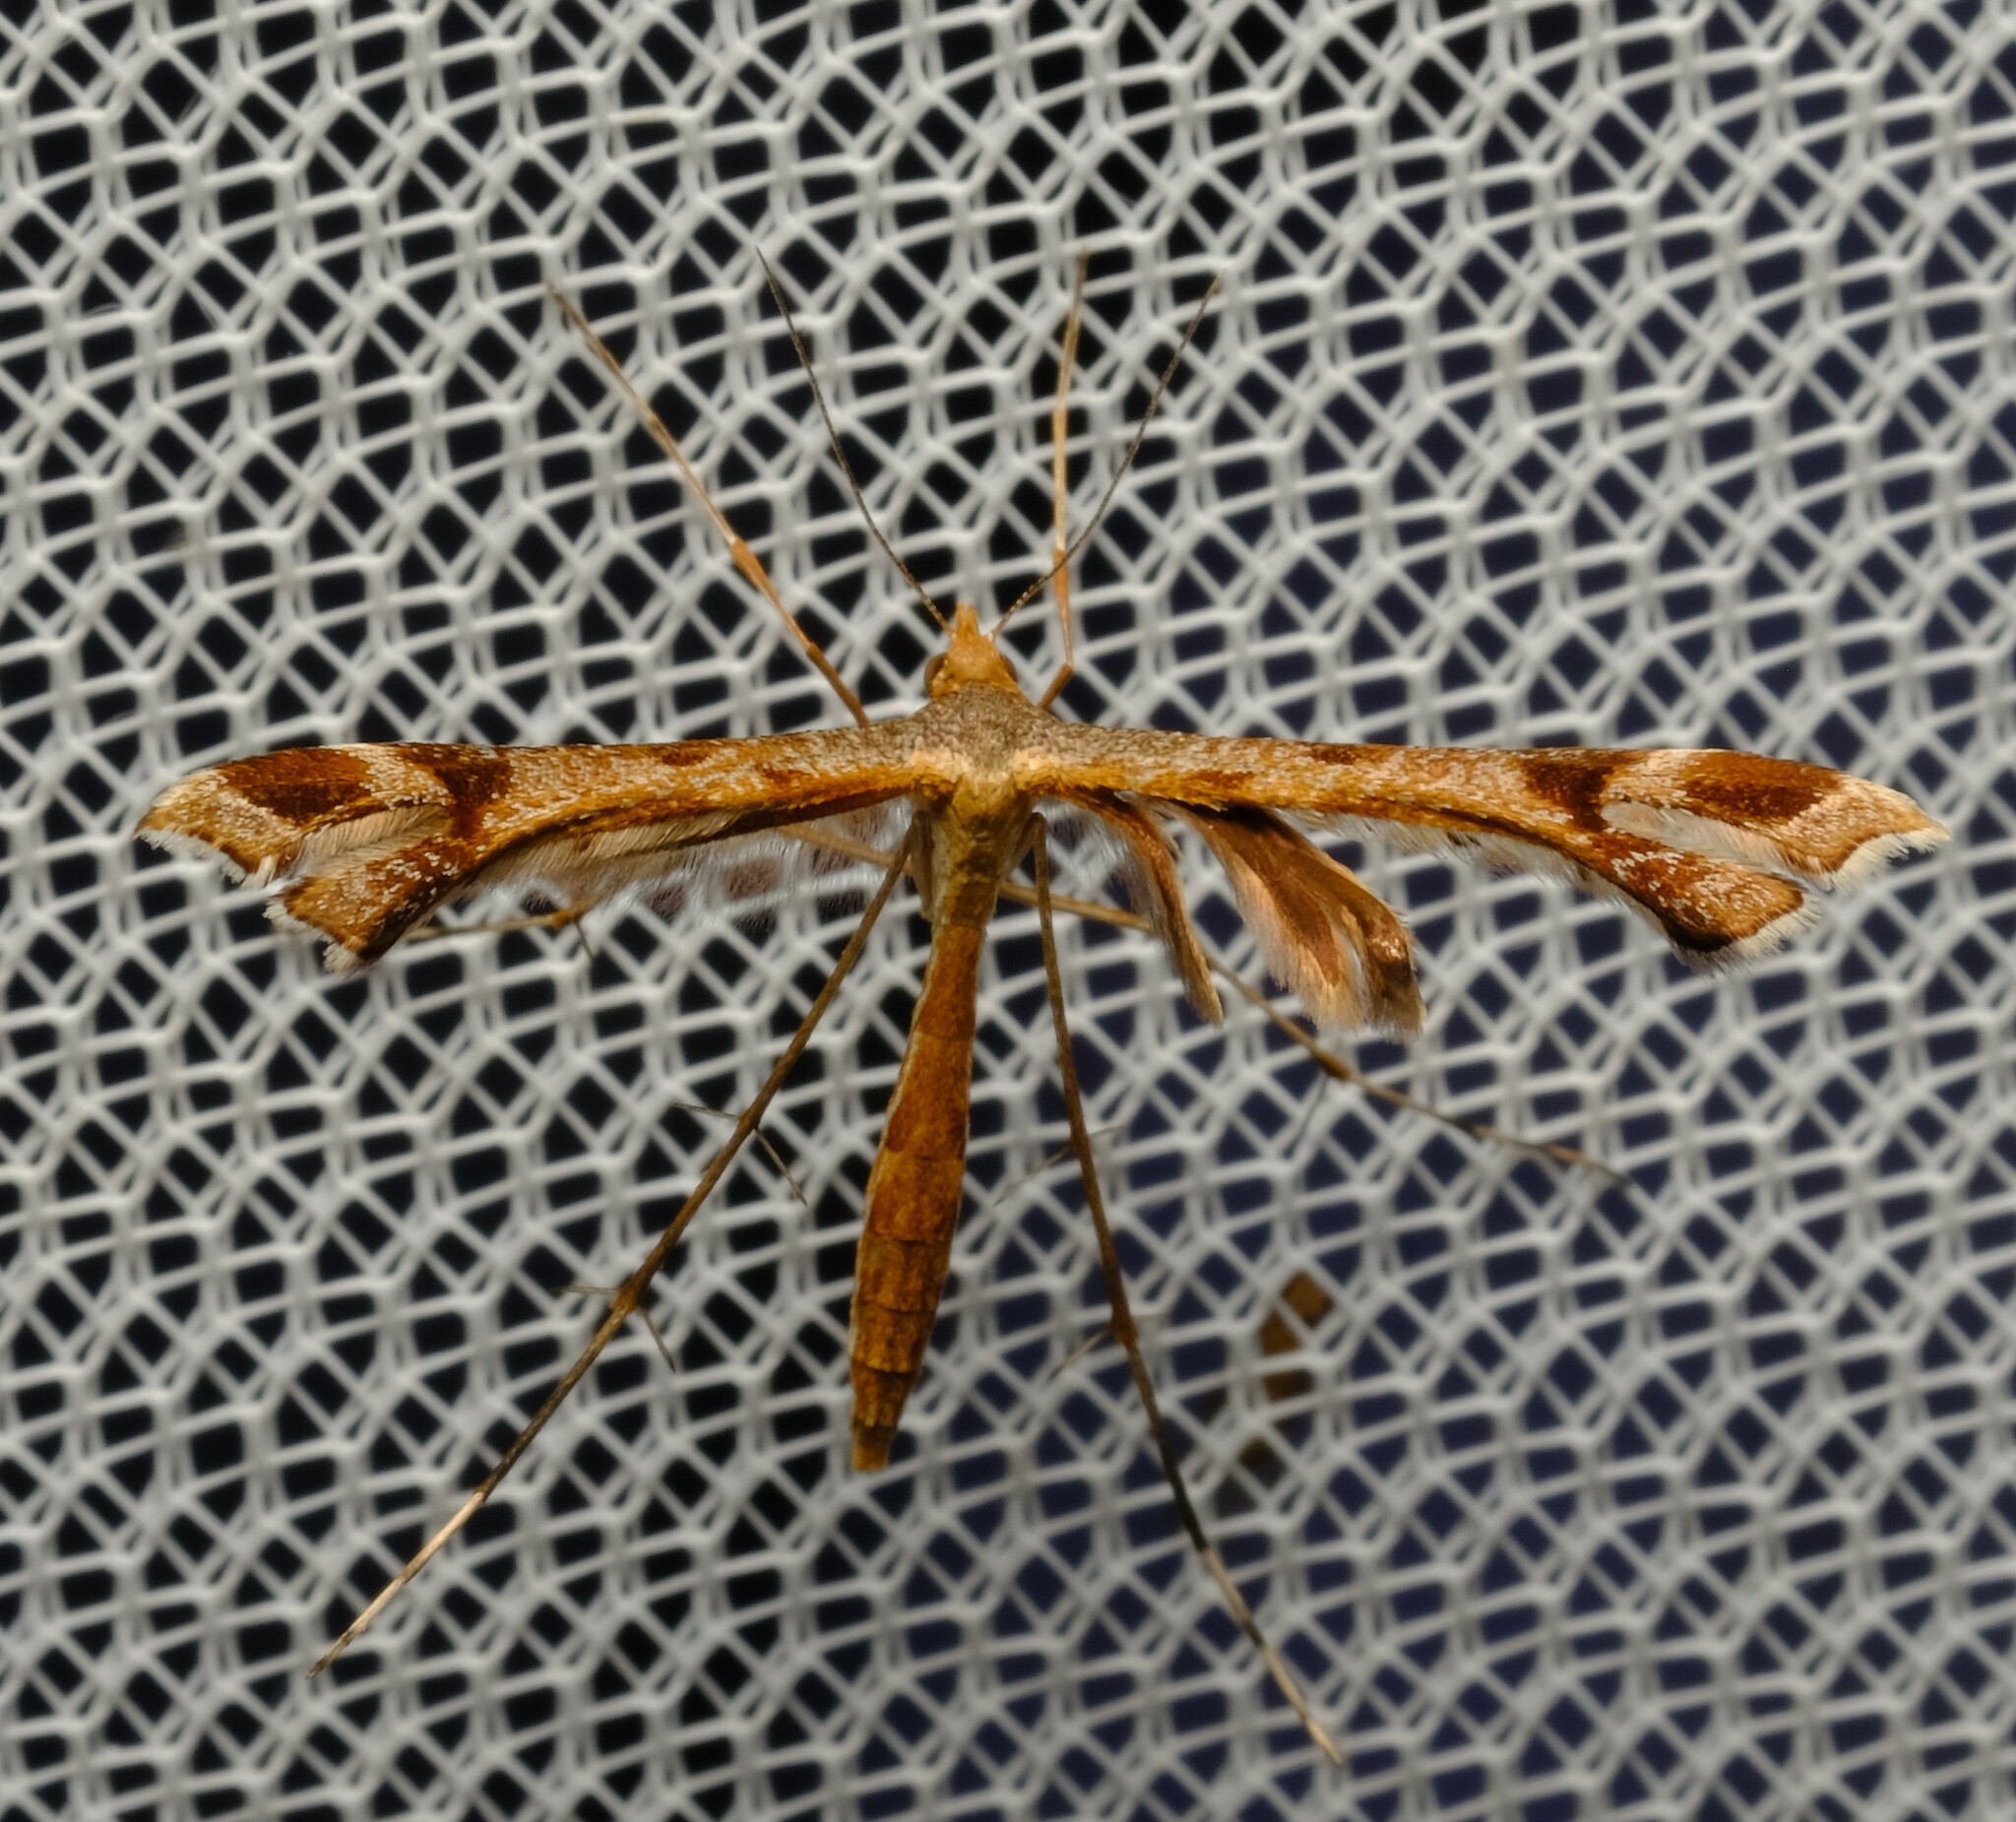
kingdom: Animalia
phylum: Arthropoda
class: Insecta
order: Lepidoptera
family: Pterophoridae
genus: Sinpunctiptilia
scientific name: Sinpunctiptilia emissalis
